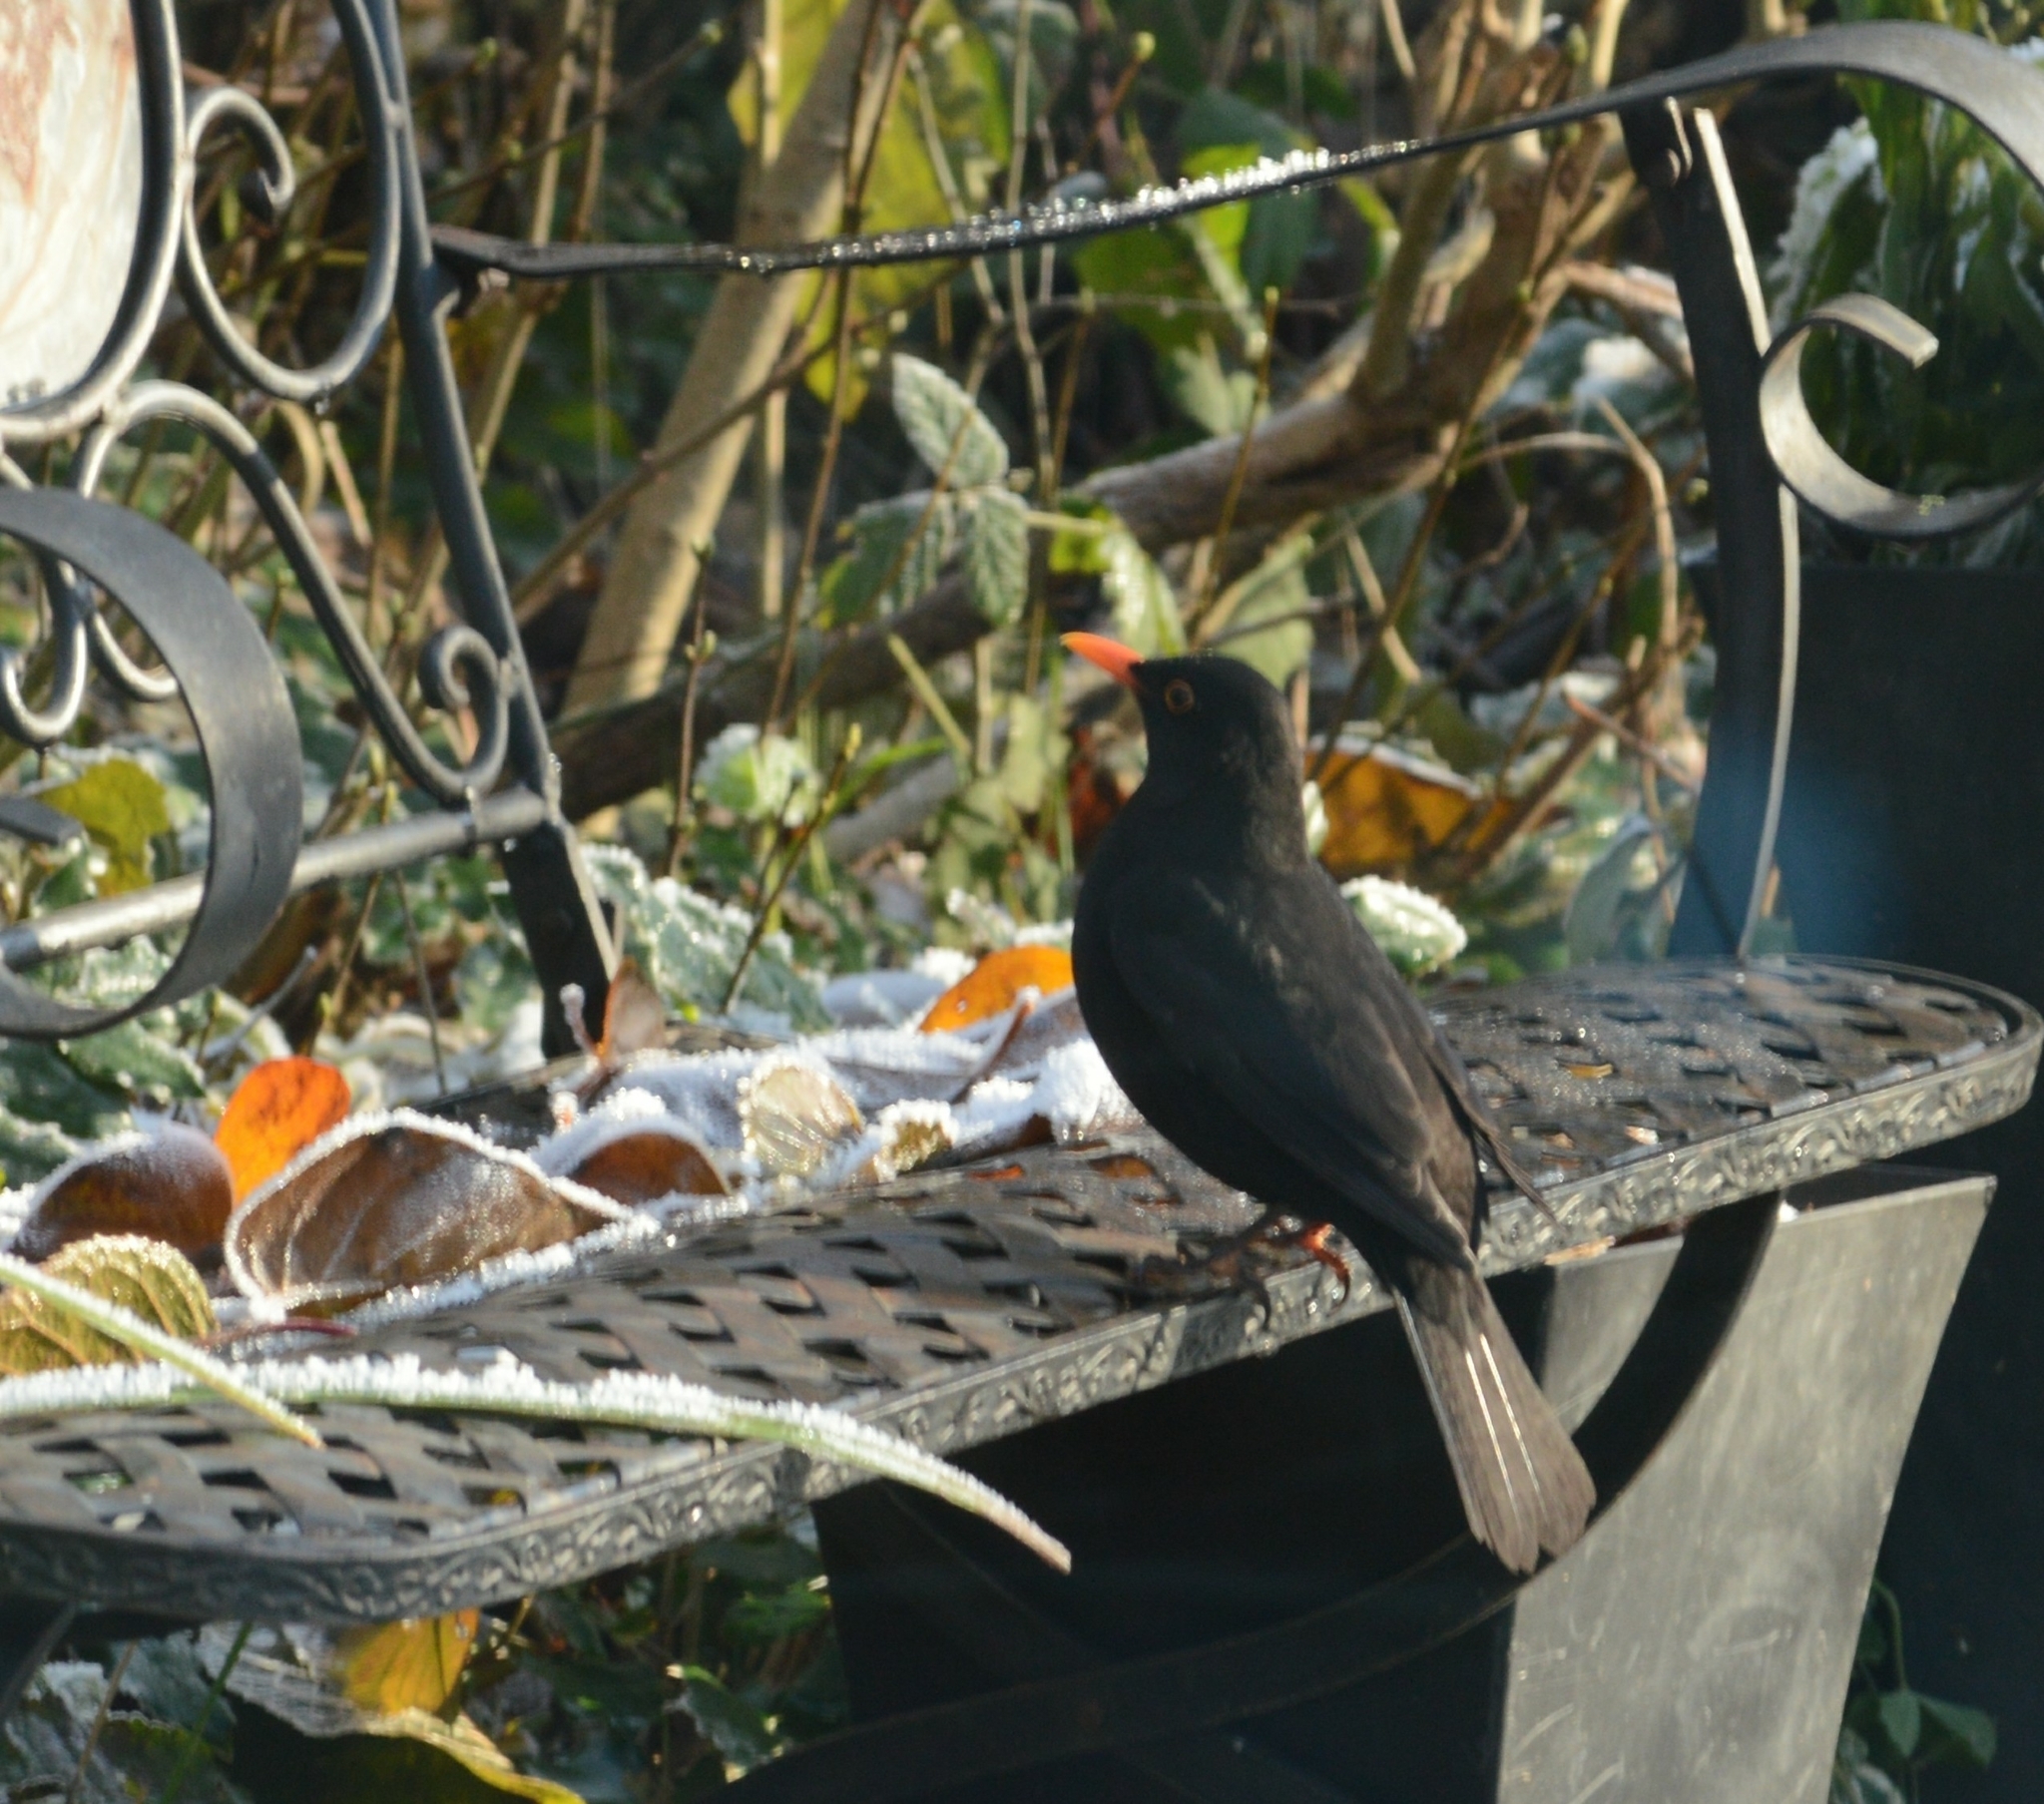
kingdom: Animalia
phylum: Chordata
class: Aves
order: Passeriformes
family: Turdidae
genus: Turdus
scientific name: Turdus merula
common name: Common blackbird
